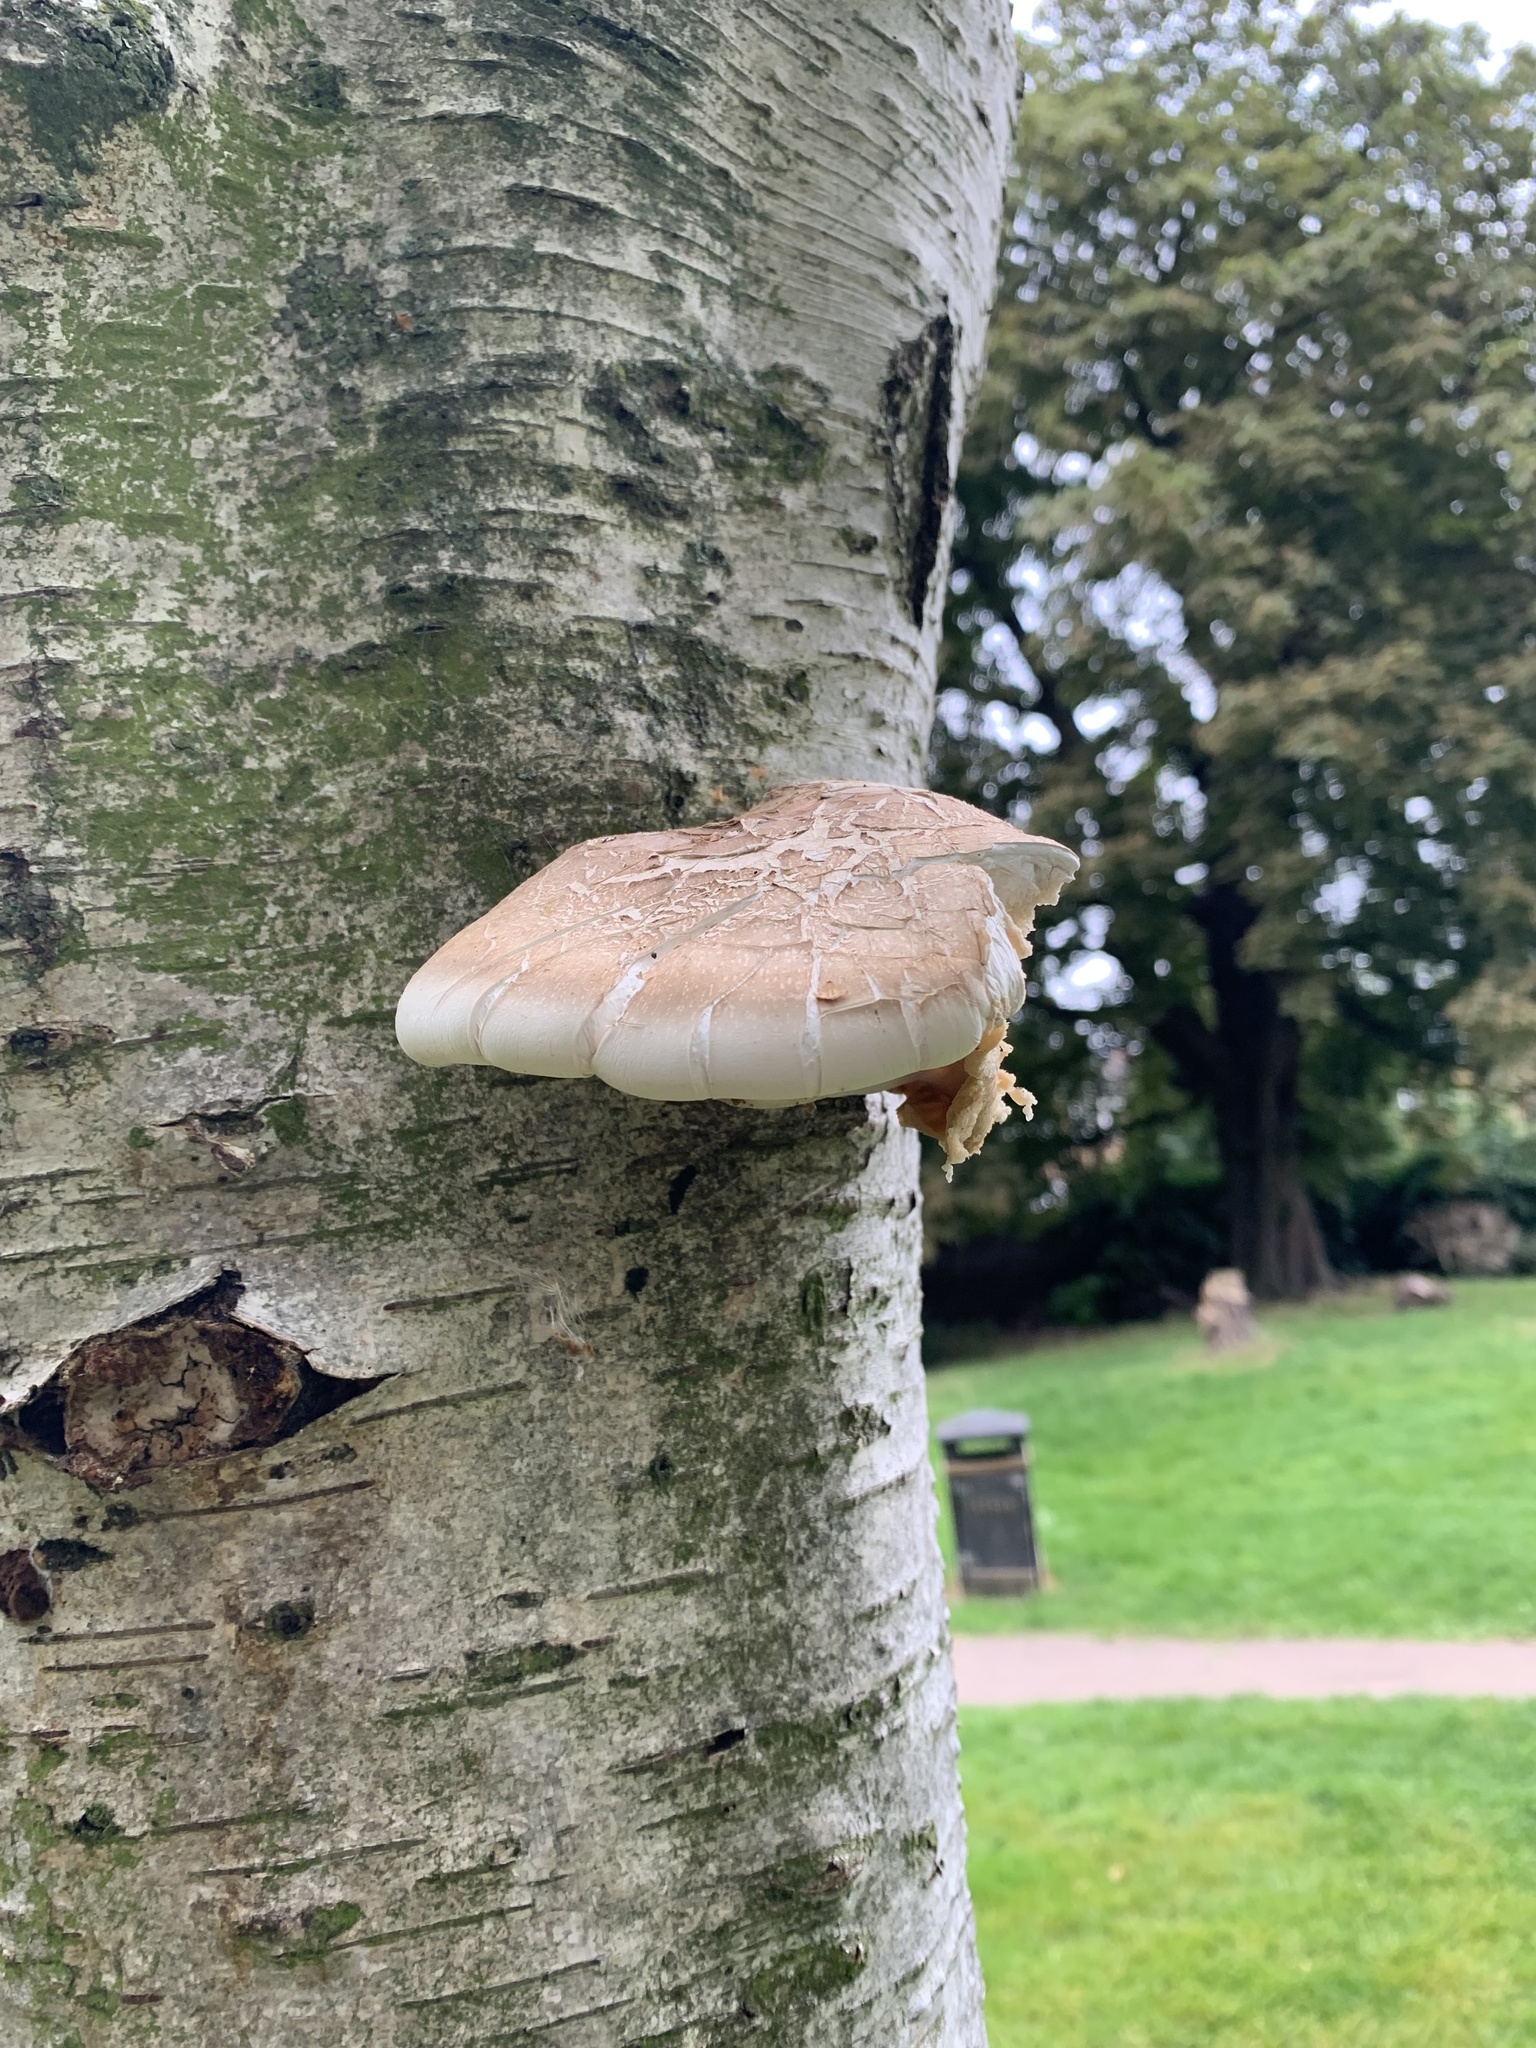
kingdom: Fungi
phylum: Basidiomycota
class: Agaricomycetes
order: Polyporales
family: Fomitopsidaceae
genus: Fomitopsis
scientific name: Fomitopsis betulina
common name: Birch polypore
